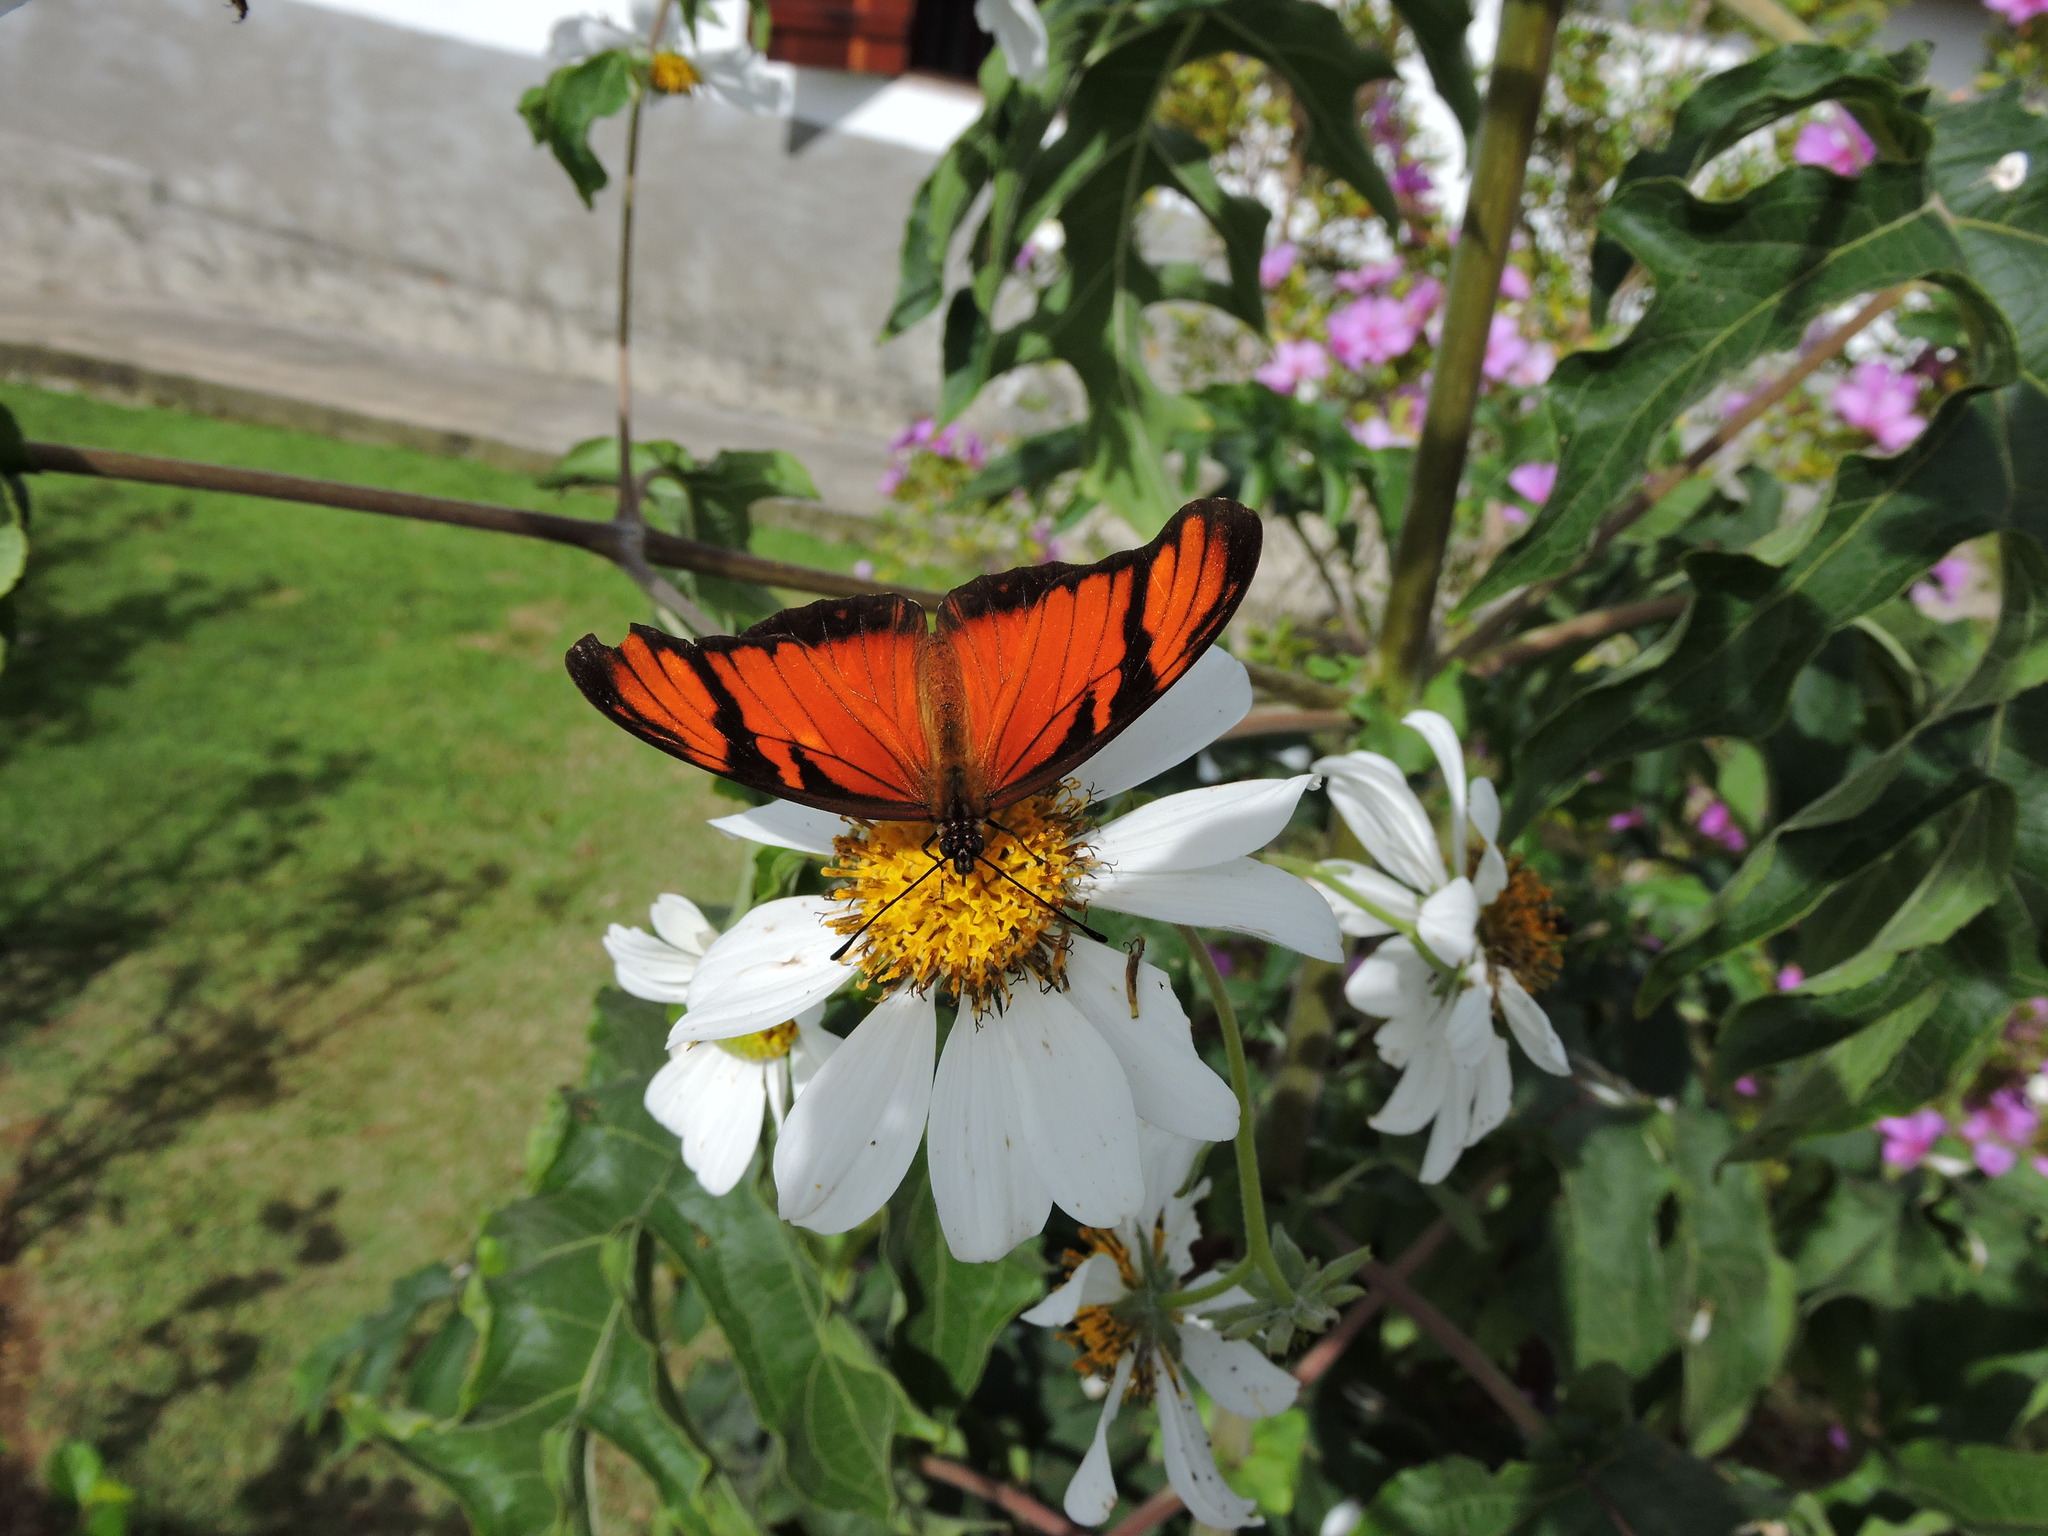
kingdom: Animalia
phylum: Arthropoda
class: Insecta
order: Lepidoptera
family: Nymphalidae
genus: Dione
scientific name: Dione juno
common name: Juno silverspot
